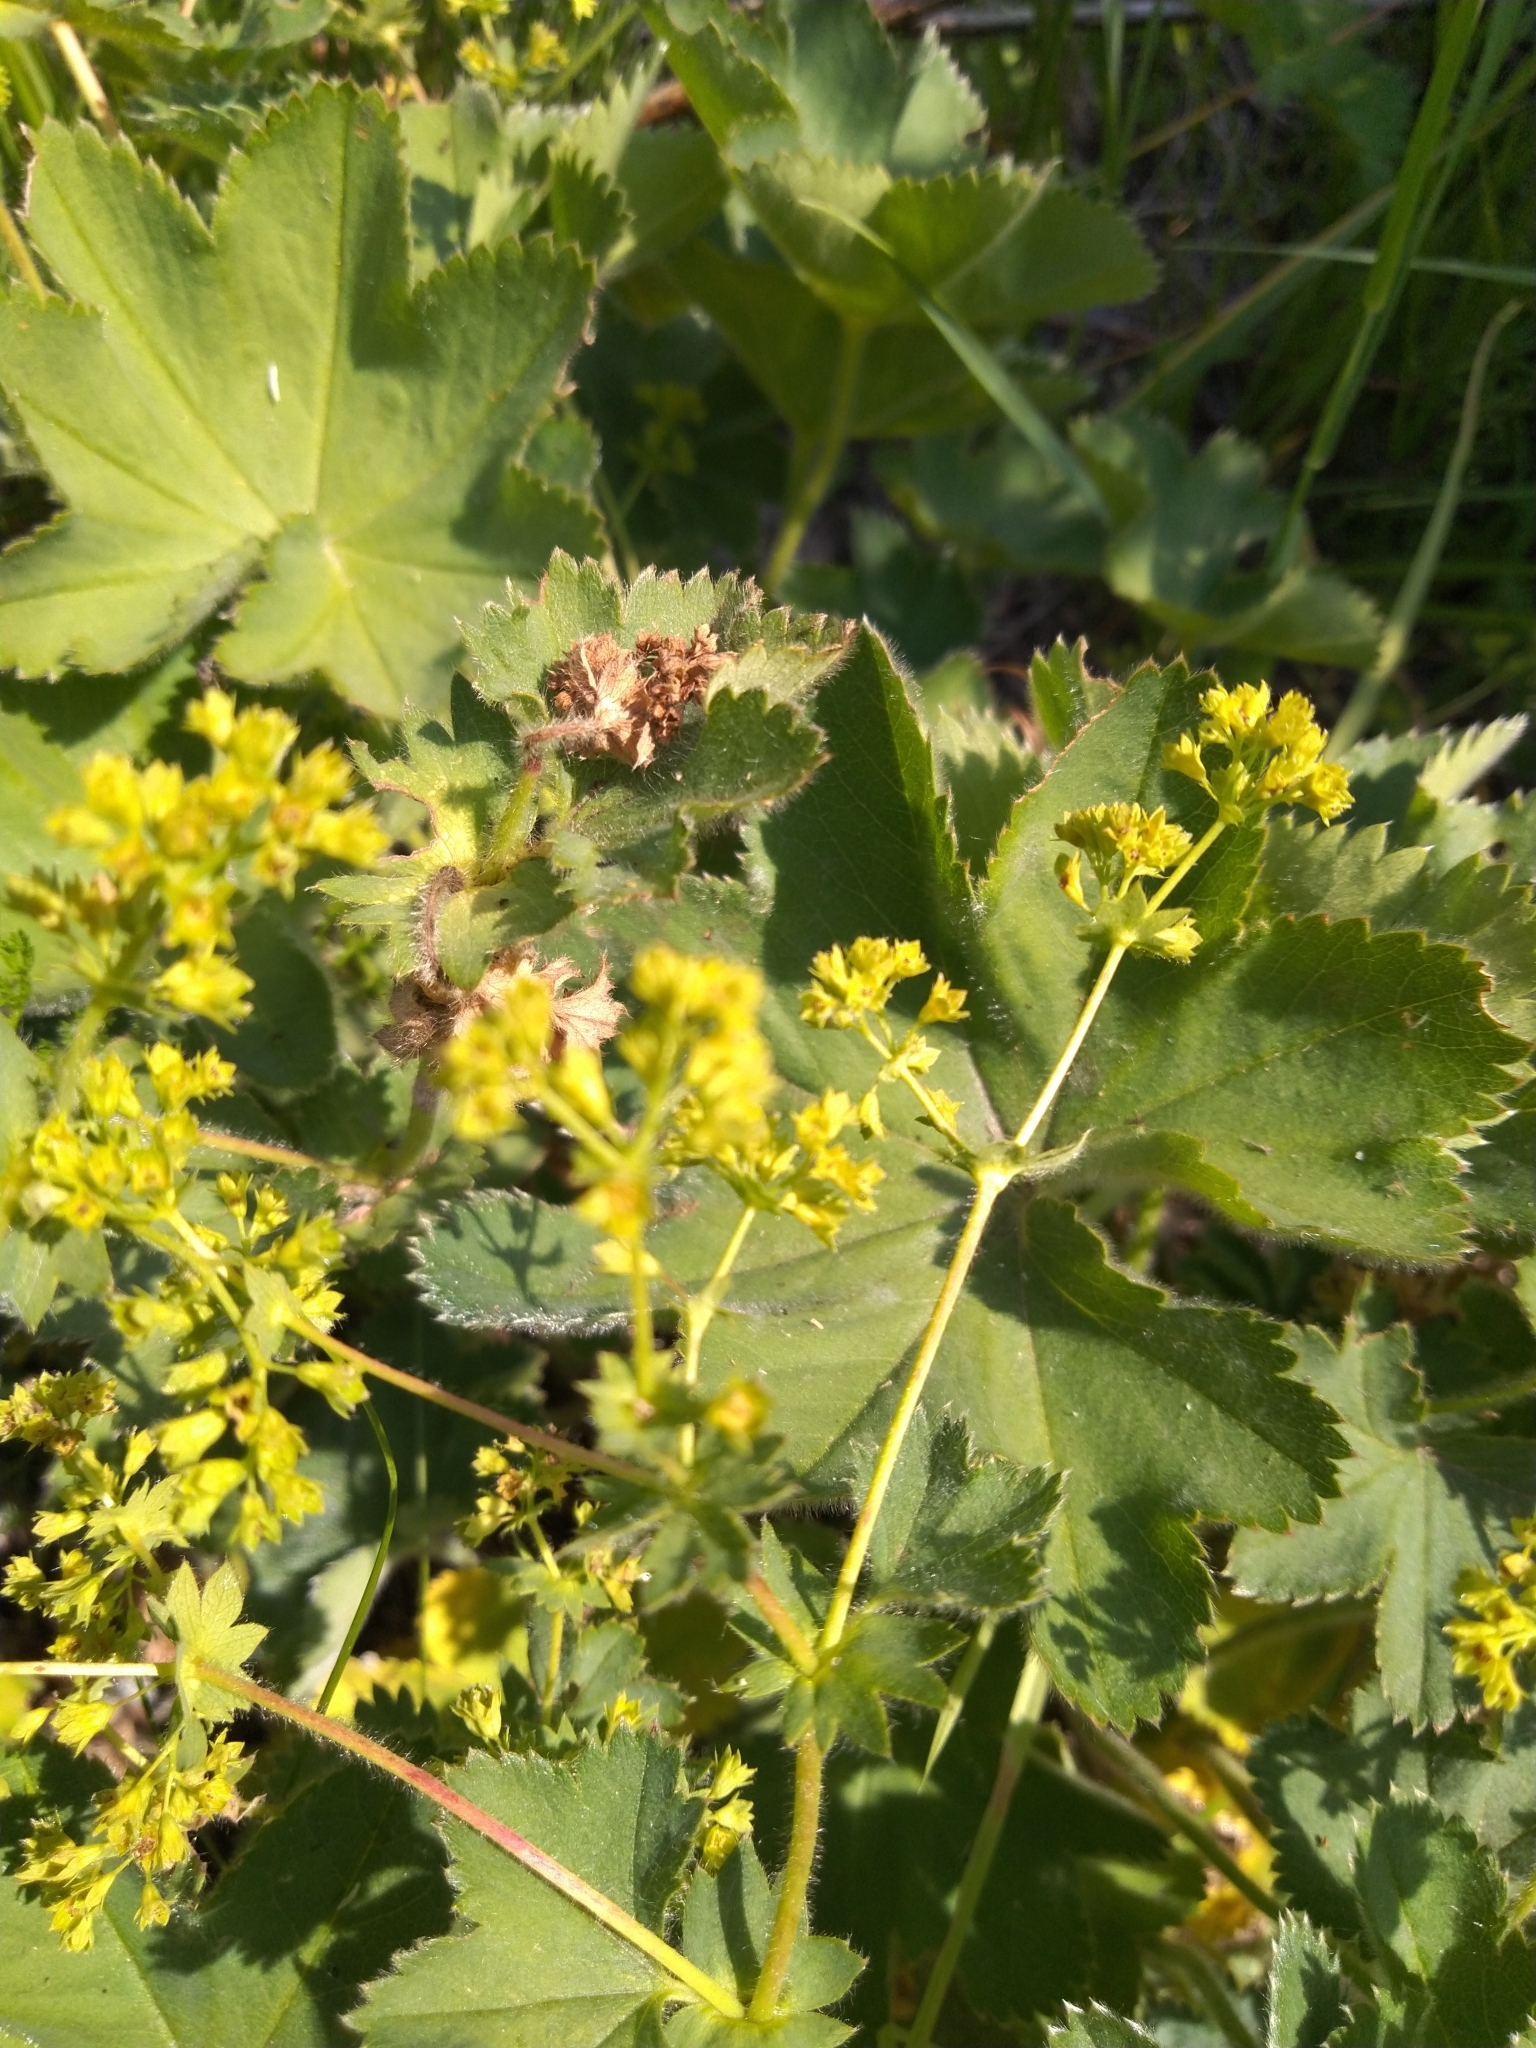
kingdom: Plantae
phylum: Tracheophyta
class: Magnoliopsida
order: Rosales
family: Rosaceae
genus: Alchemilla
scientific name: Alchemilla zimoenkensis
